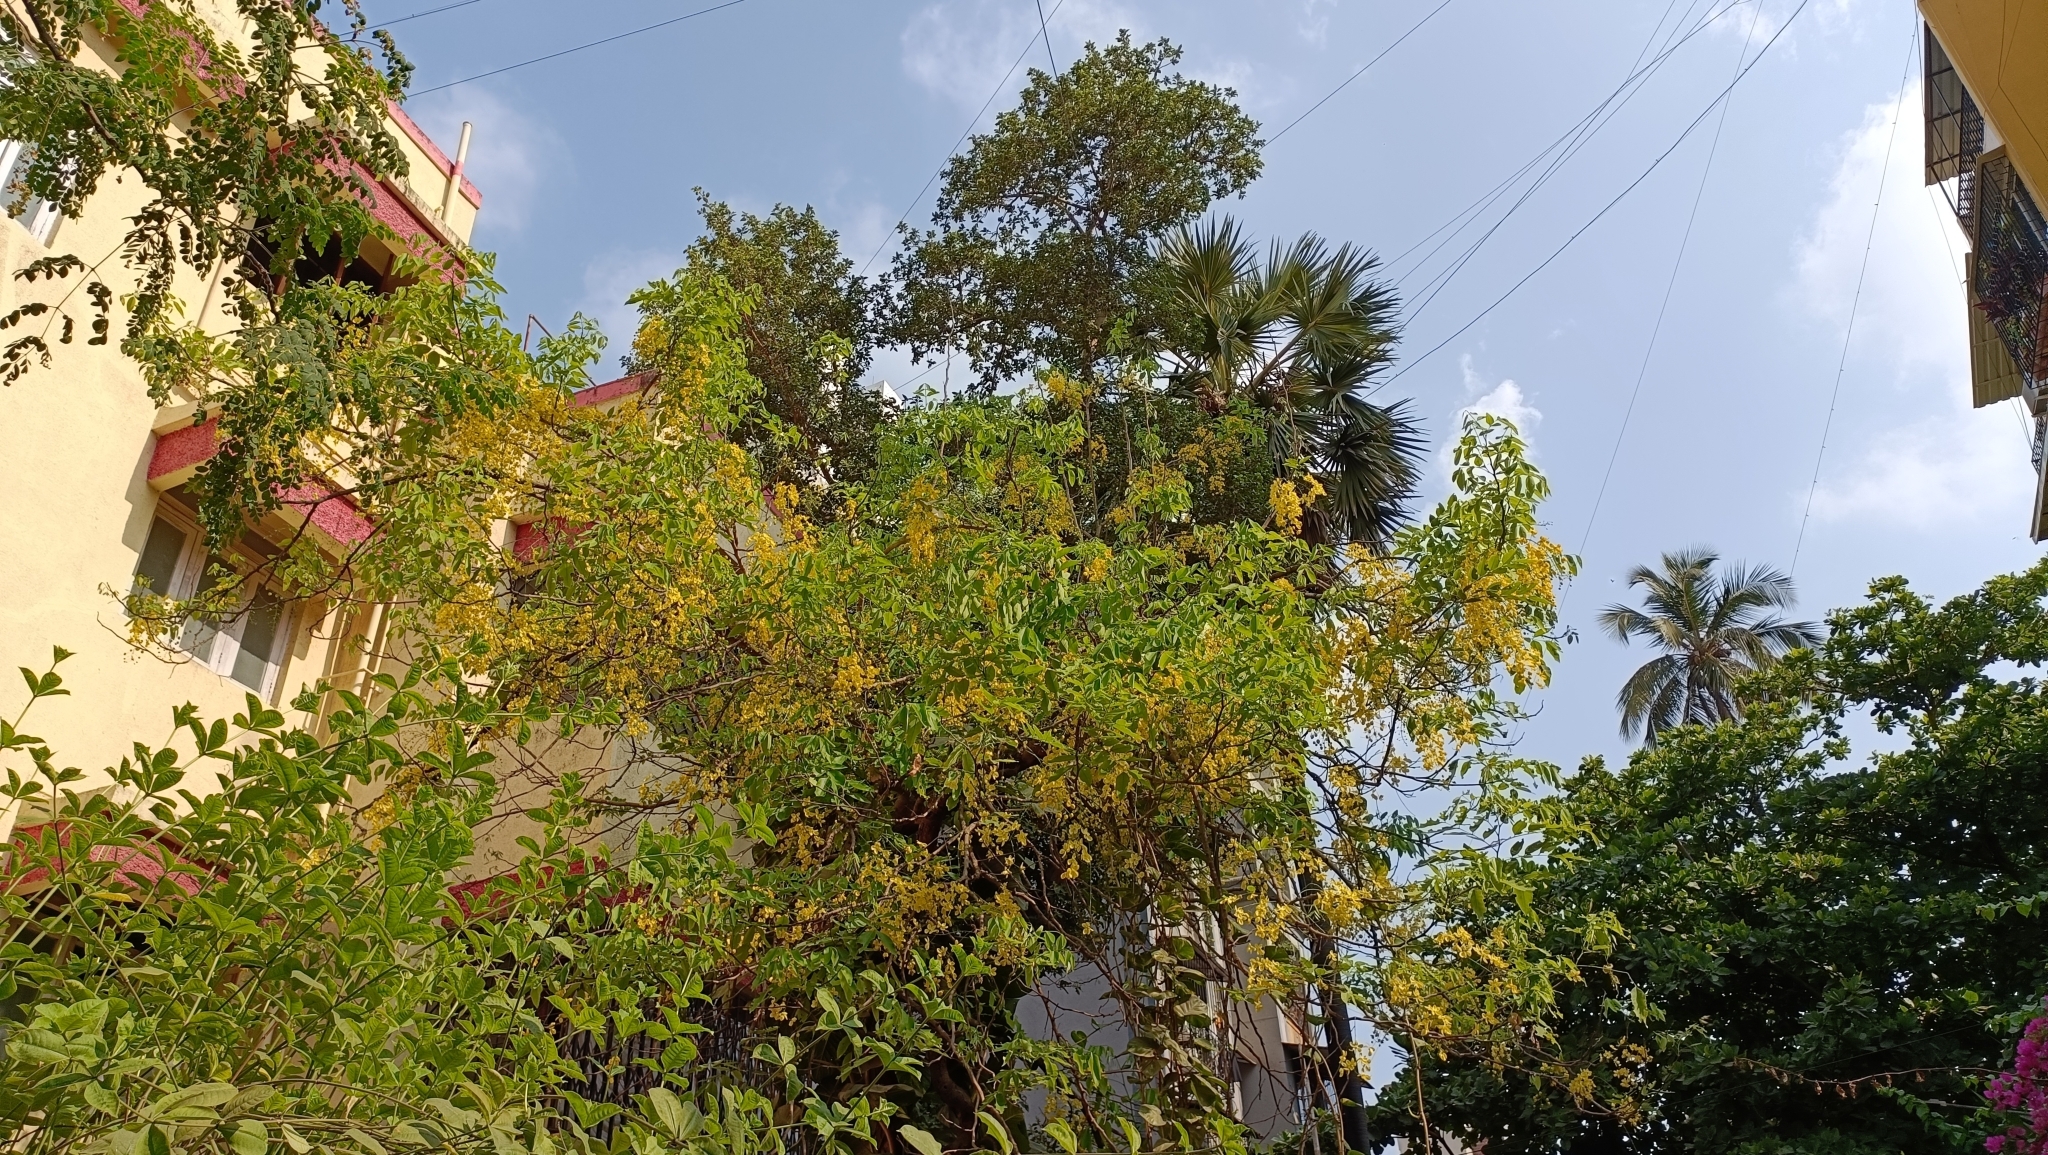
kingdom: Plantae
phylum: Tracheophyta
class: Magnoliopsida
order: Fabales
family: Fabaceae
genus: Cassia
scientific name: Cassia fistula
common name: Golden shower
